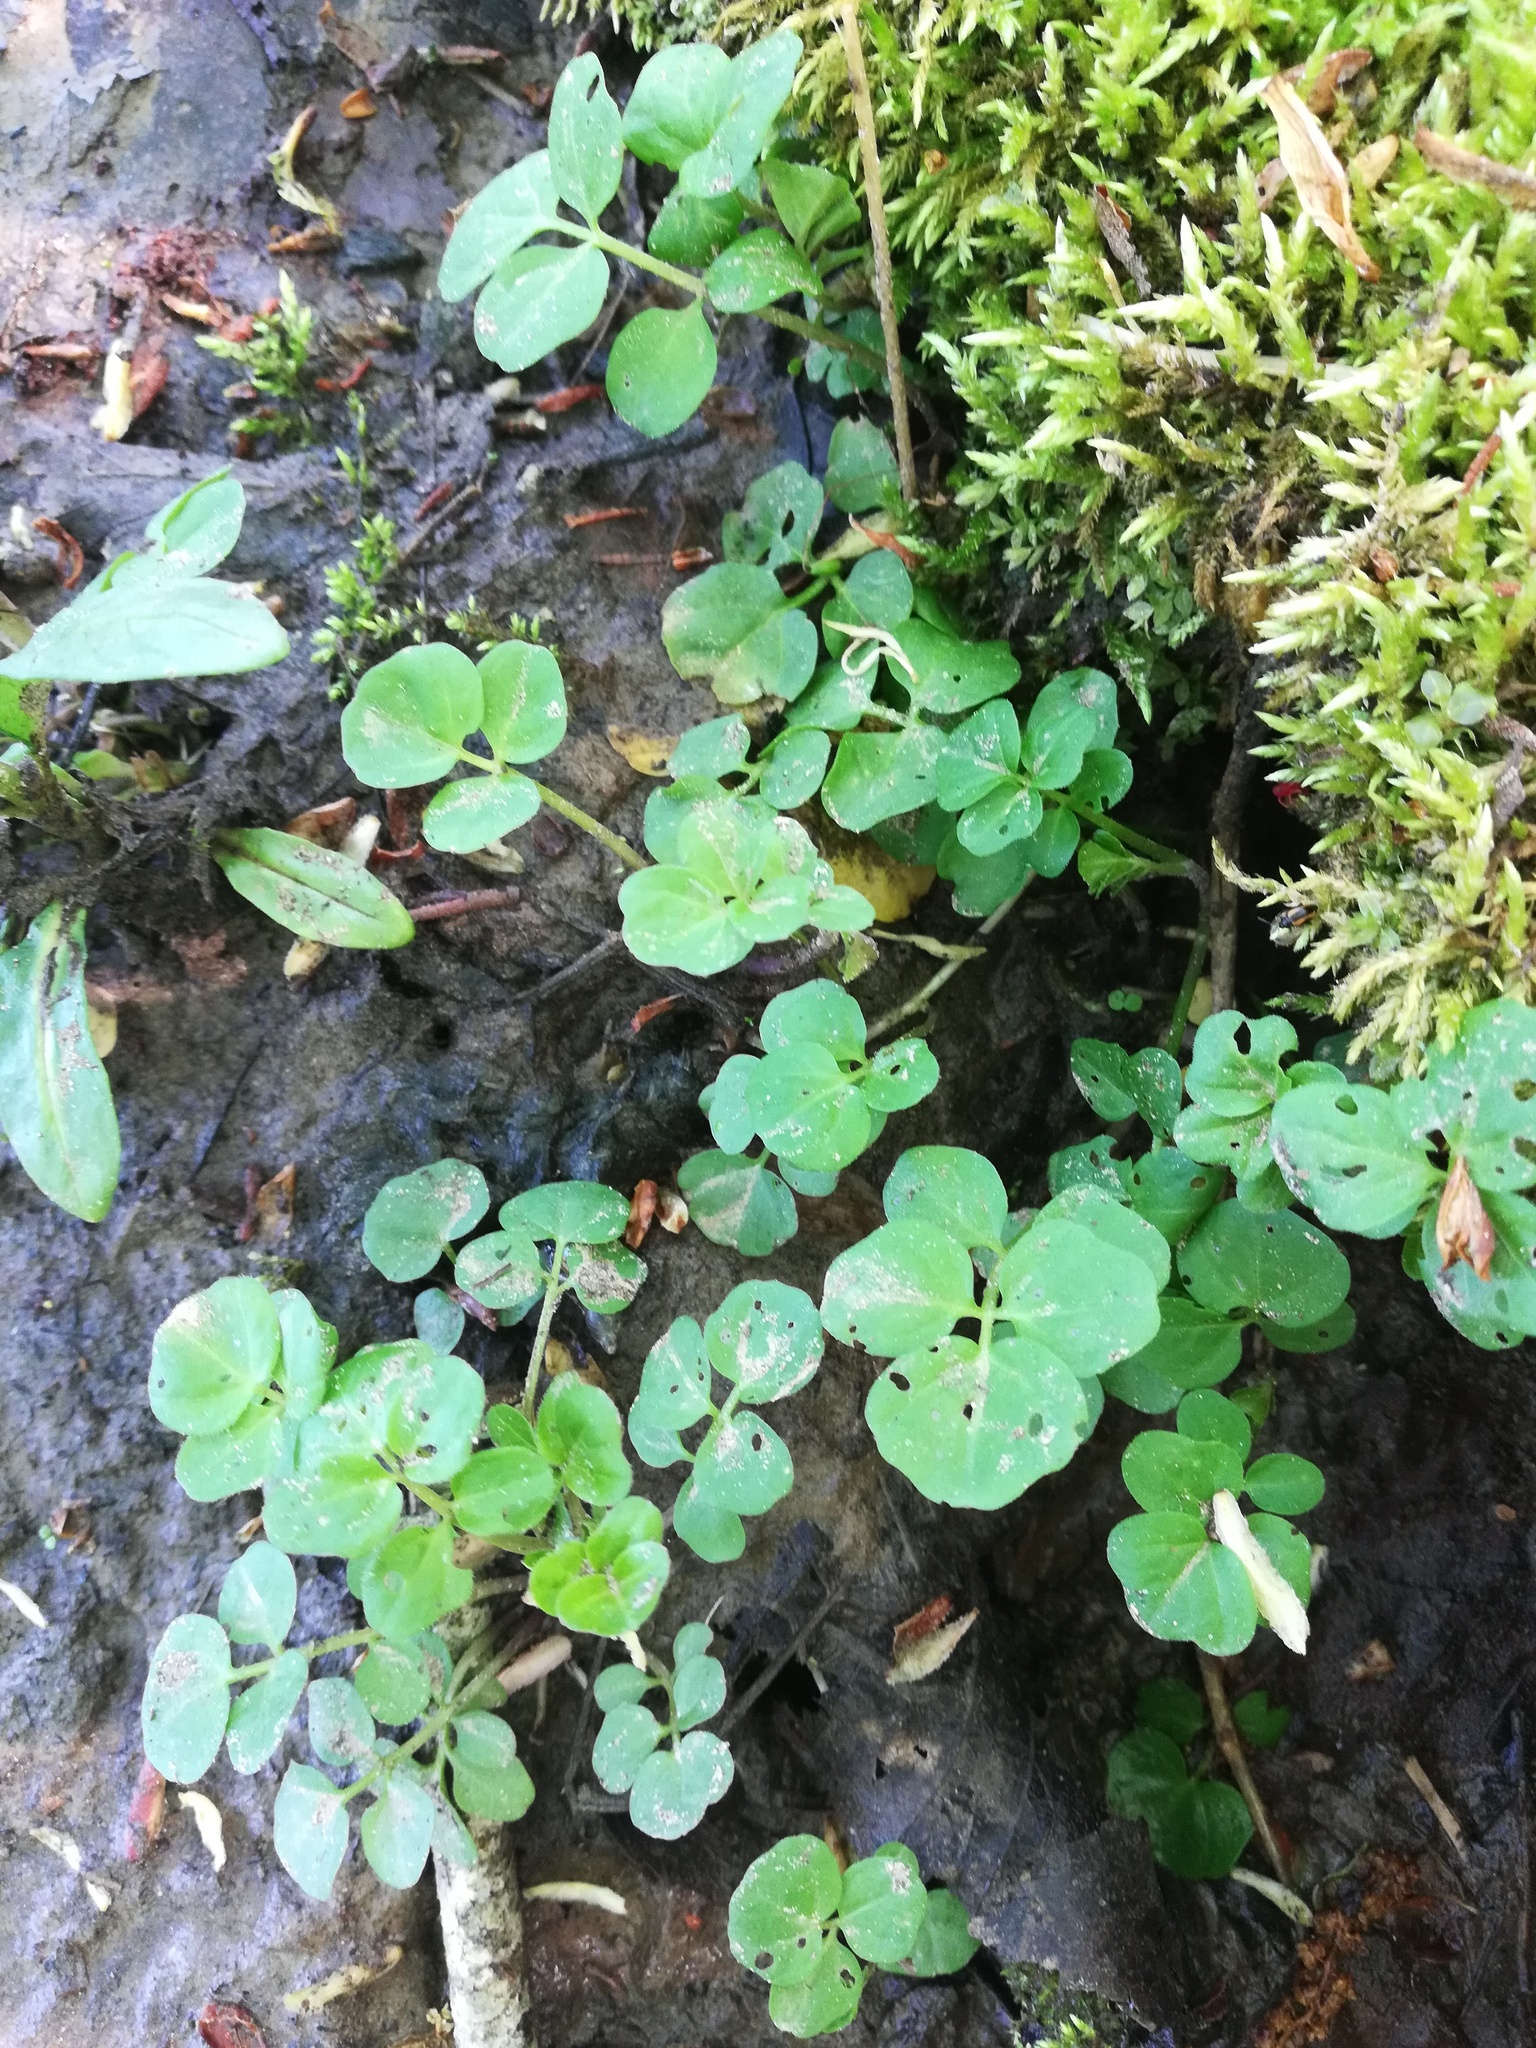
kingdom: Plantae
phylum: Tracheophyta
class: Magnoliopsida
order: Brassicales
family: Brassicaceae
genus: Cardamine
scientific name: Cardamine amara
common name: Large bitter-cress
